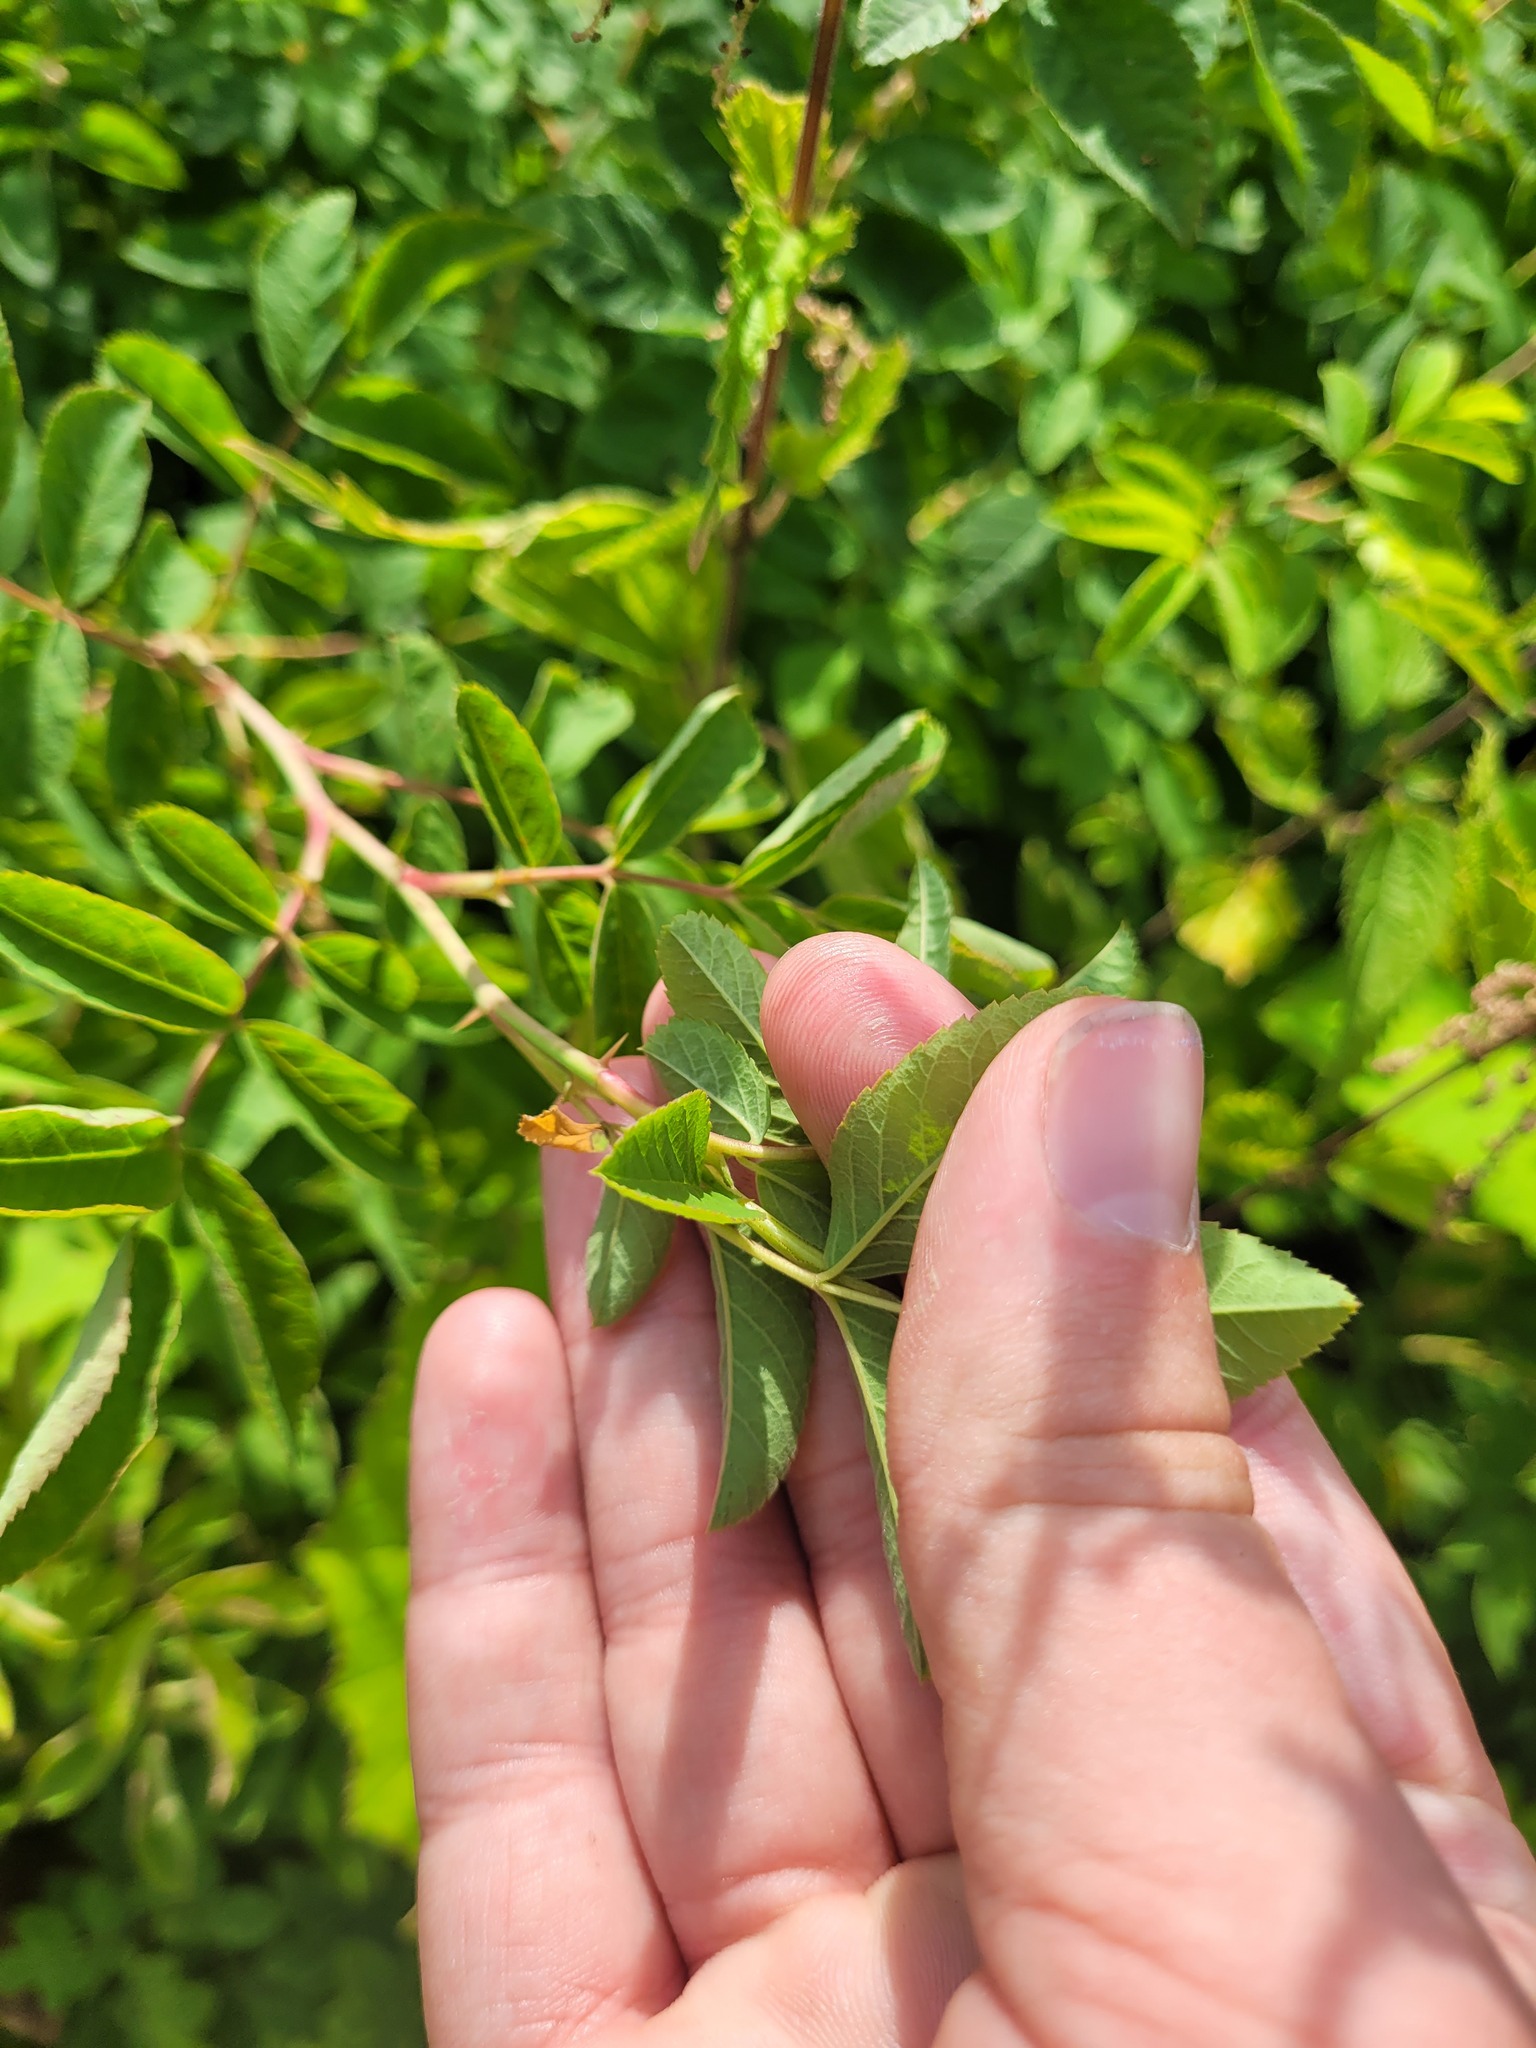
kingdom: Plantae
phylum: Tracheophyta
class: Magnoliopsida
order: Rosales
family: Rosaceae
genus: Rosa
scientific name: Rosa majalis
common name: Cinnamon rose
